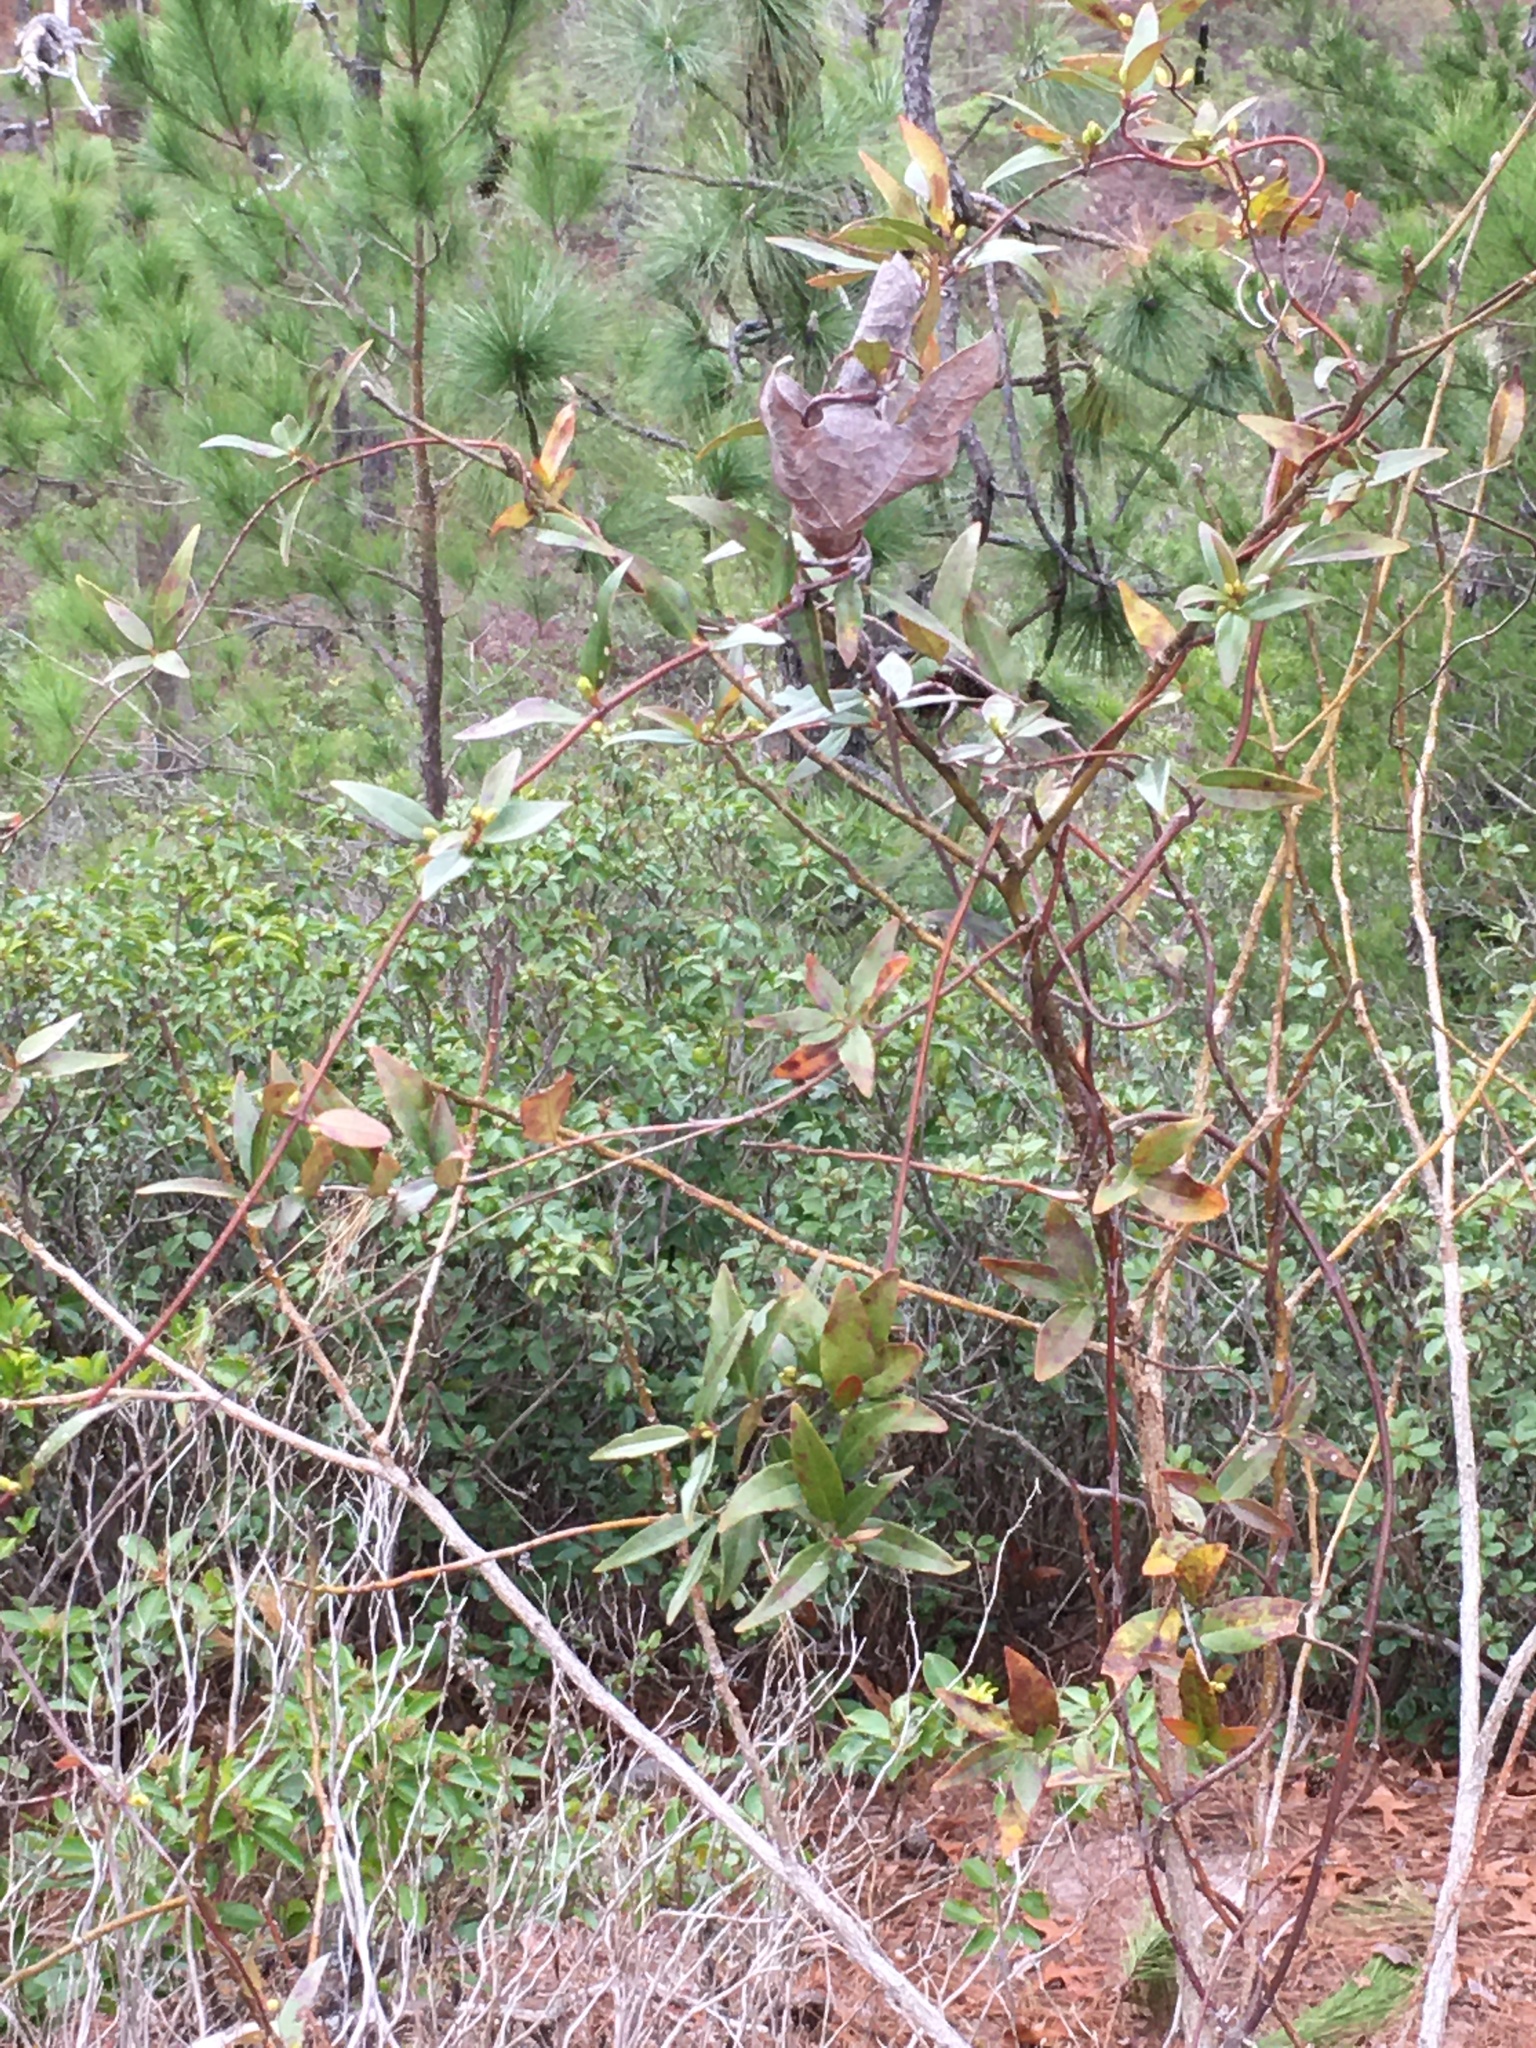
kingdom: Plantae
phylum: Tracheophyta
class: Magnoliopsida
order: Gentianales
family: Gelsemiaceae
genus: Gelsemium
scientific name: Gelsemium sempervirens
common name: Carolina-jasmine
